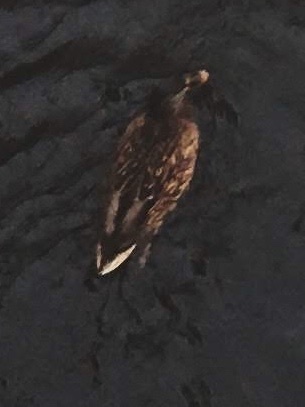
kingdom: Animalia
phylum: Chordata
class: Aves
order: Anseriformes
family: Anatidae
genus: Anas
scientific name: Anas platyrhynchos
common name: Mallard
